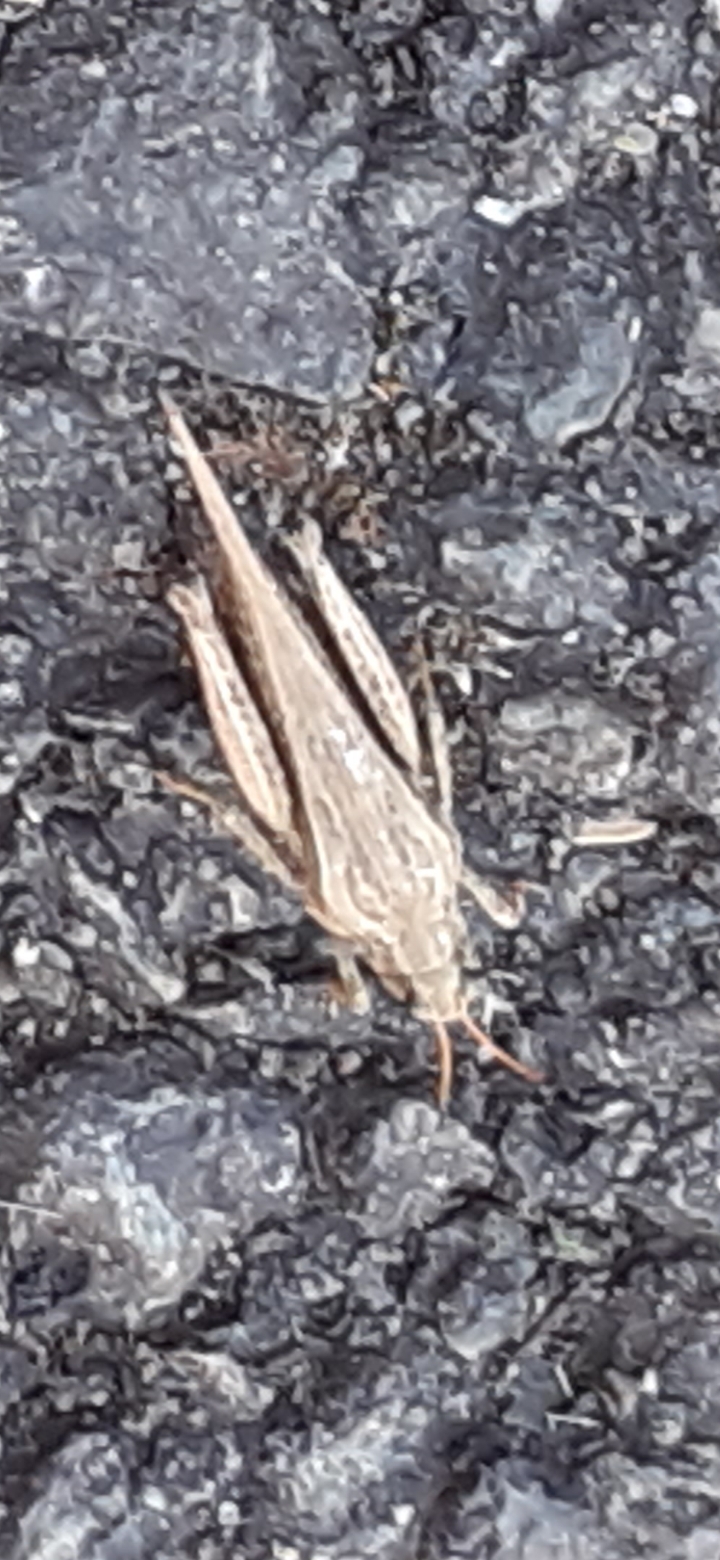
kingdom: Animalia
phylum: Arthropoda
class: Insecta
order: Orthoptera
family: Tetrigidae
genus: Tetrix
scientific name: Tetrix subulata
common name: Slender ground-hopper
